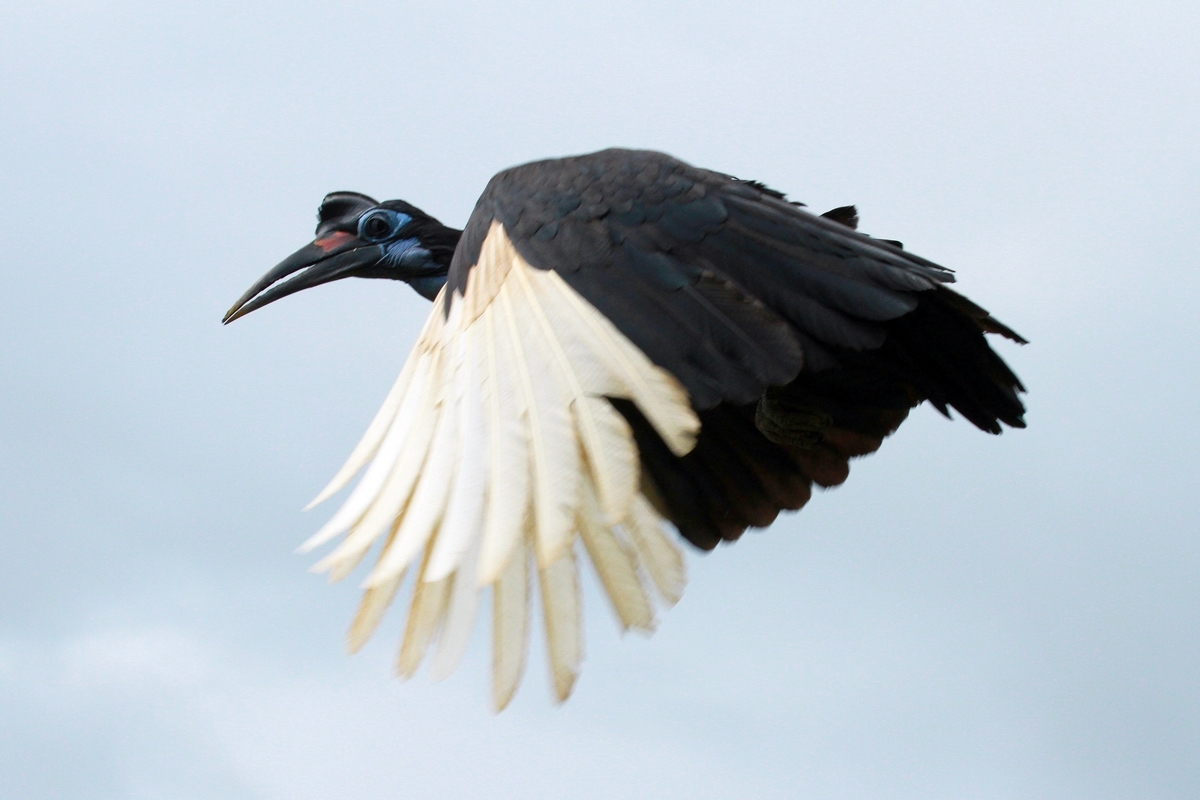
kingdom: Animalia
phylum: Chordata
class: Aves
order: Bucerotiformes
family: Bucorvidae
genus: Bucorvus
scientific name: Bucorvus abyssinicus
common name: Abyssinian ground hornbill
